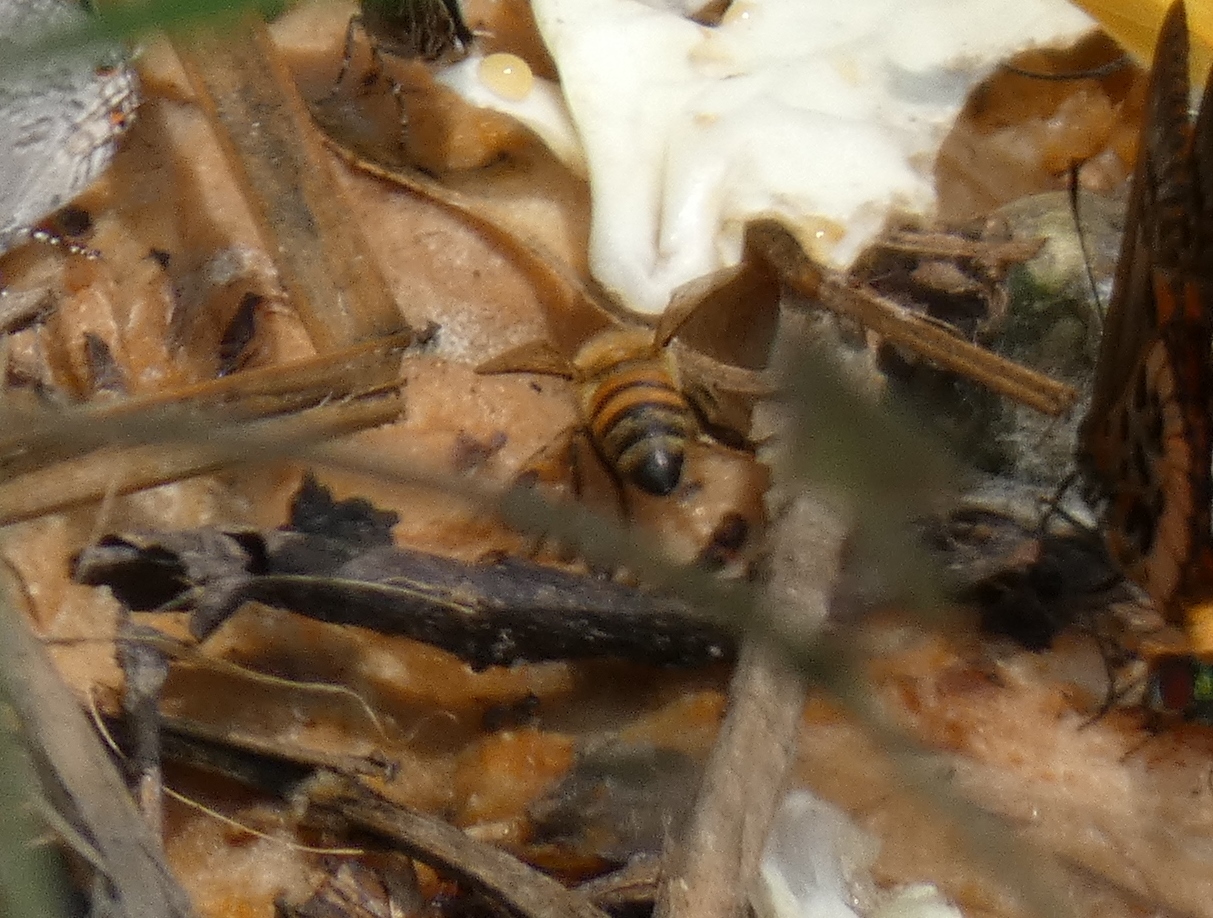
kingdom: Animalia
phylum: Arthropoda
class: Insecta
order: Hymenoptera
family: Apidae
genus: Apis
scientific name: Apis mellifera
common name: Honey bee
